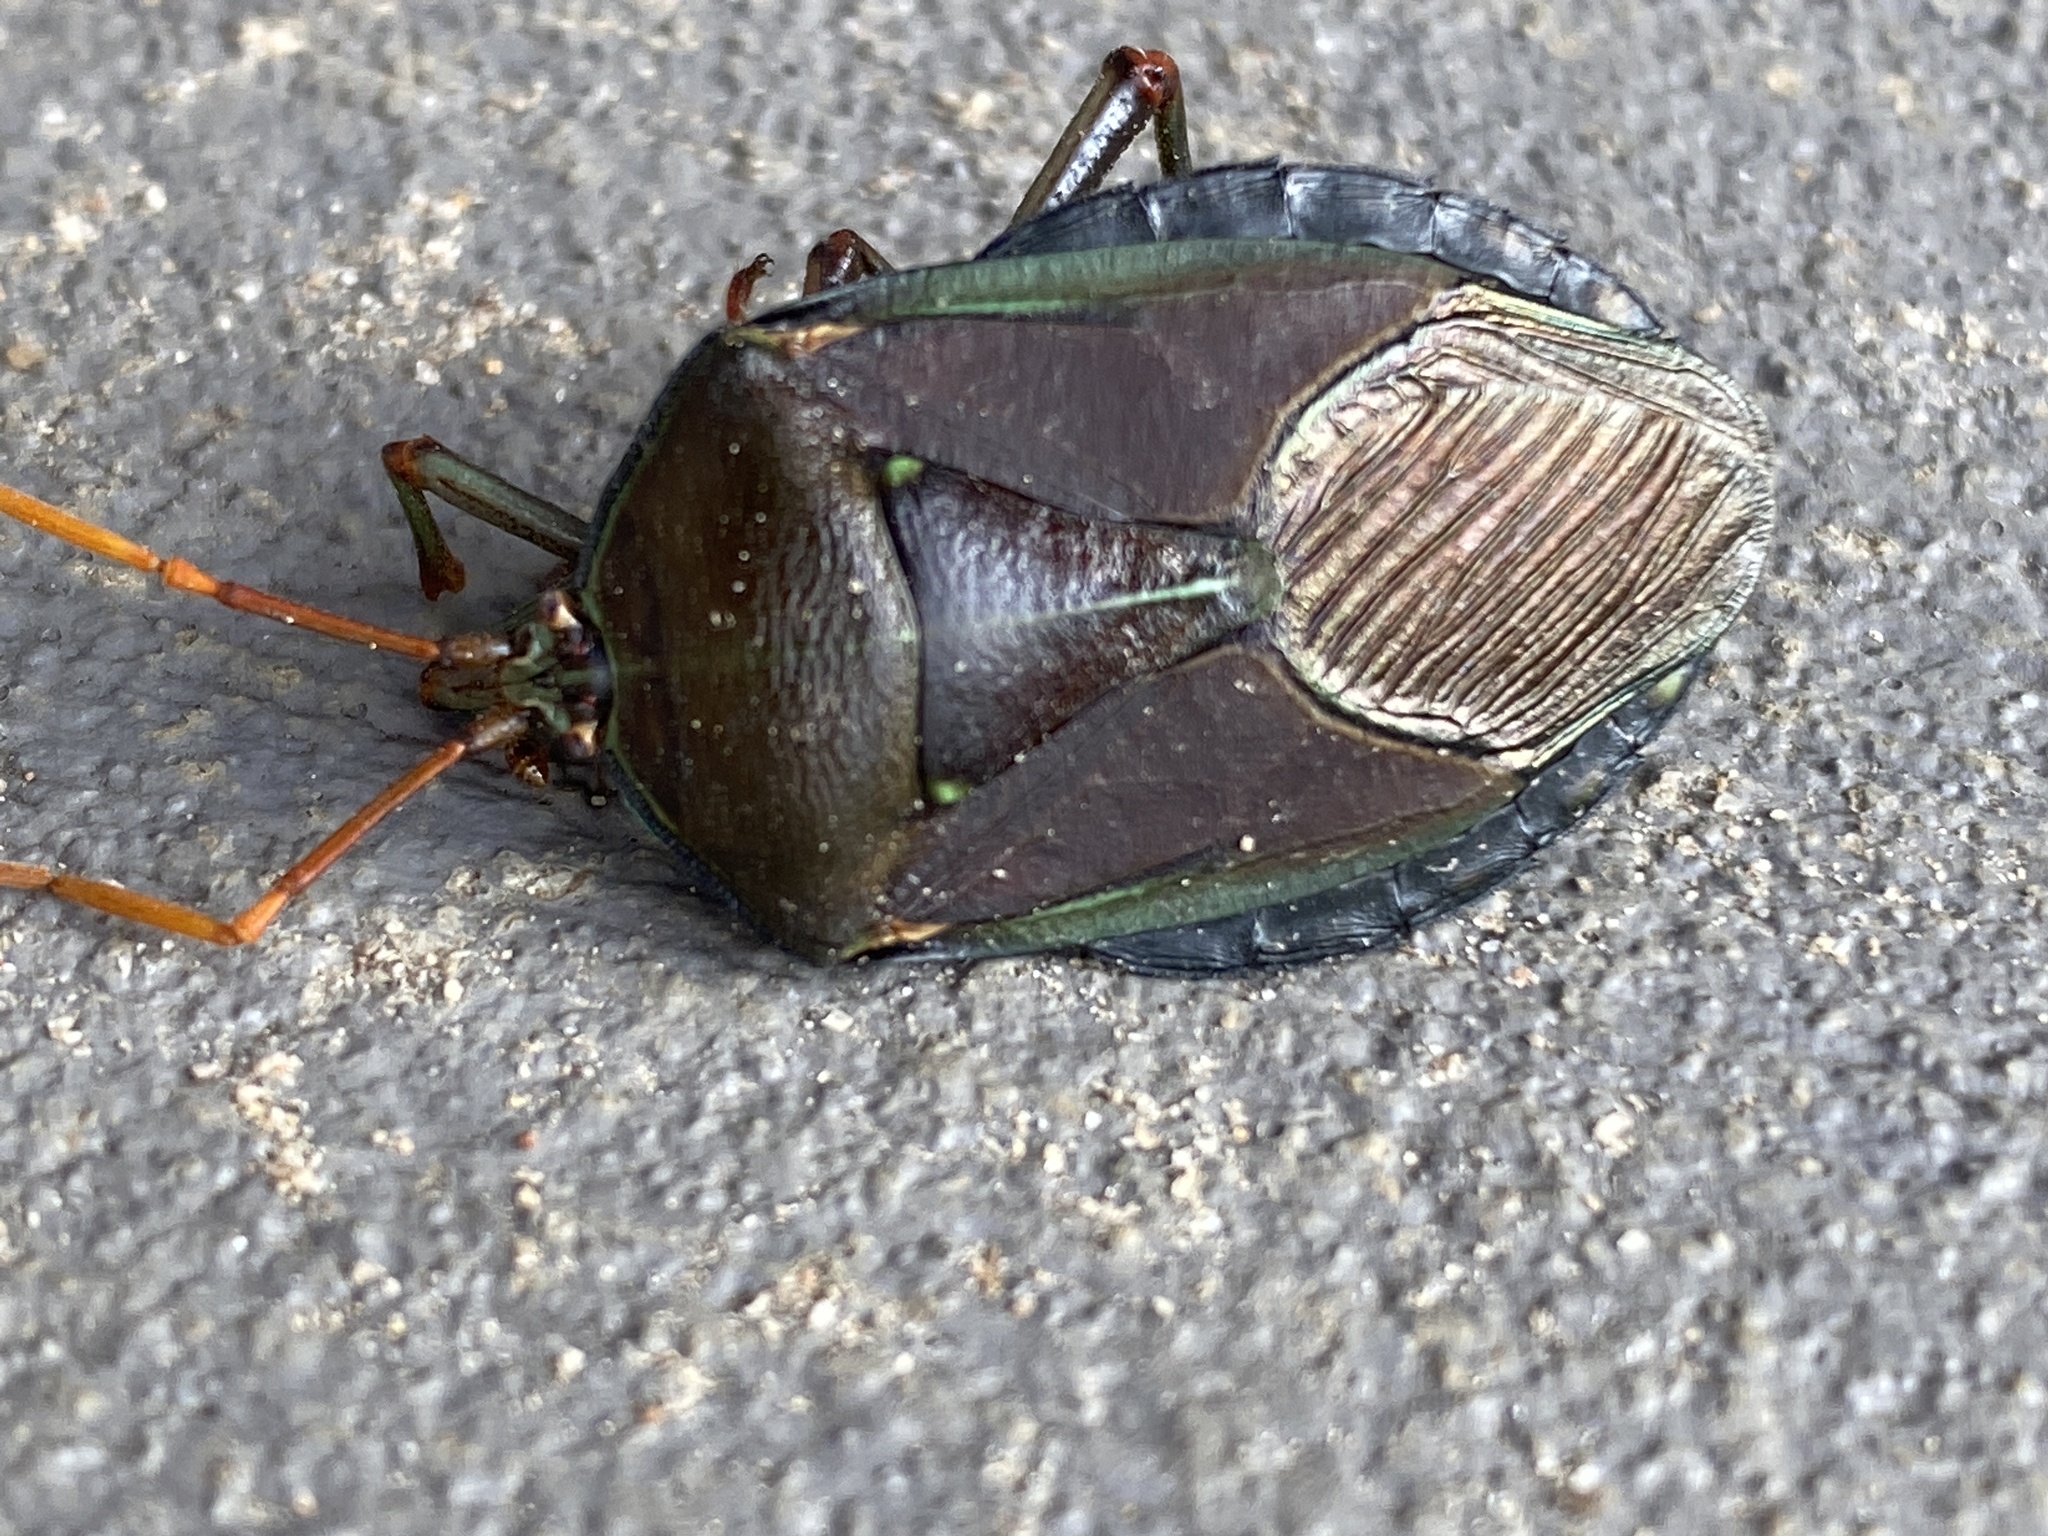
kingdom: Animalia
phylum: Arthropoda
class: Insecta
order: Hemiptera
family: Tessaratomidae
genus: Musgraveia
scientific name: Musgraveia sulciventris
